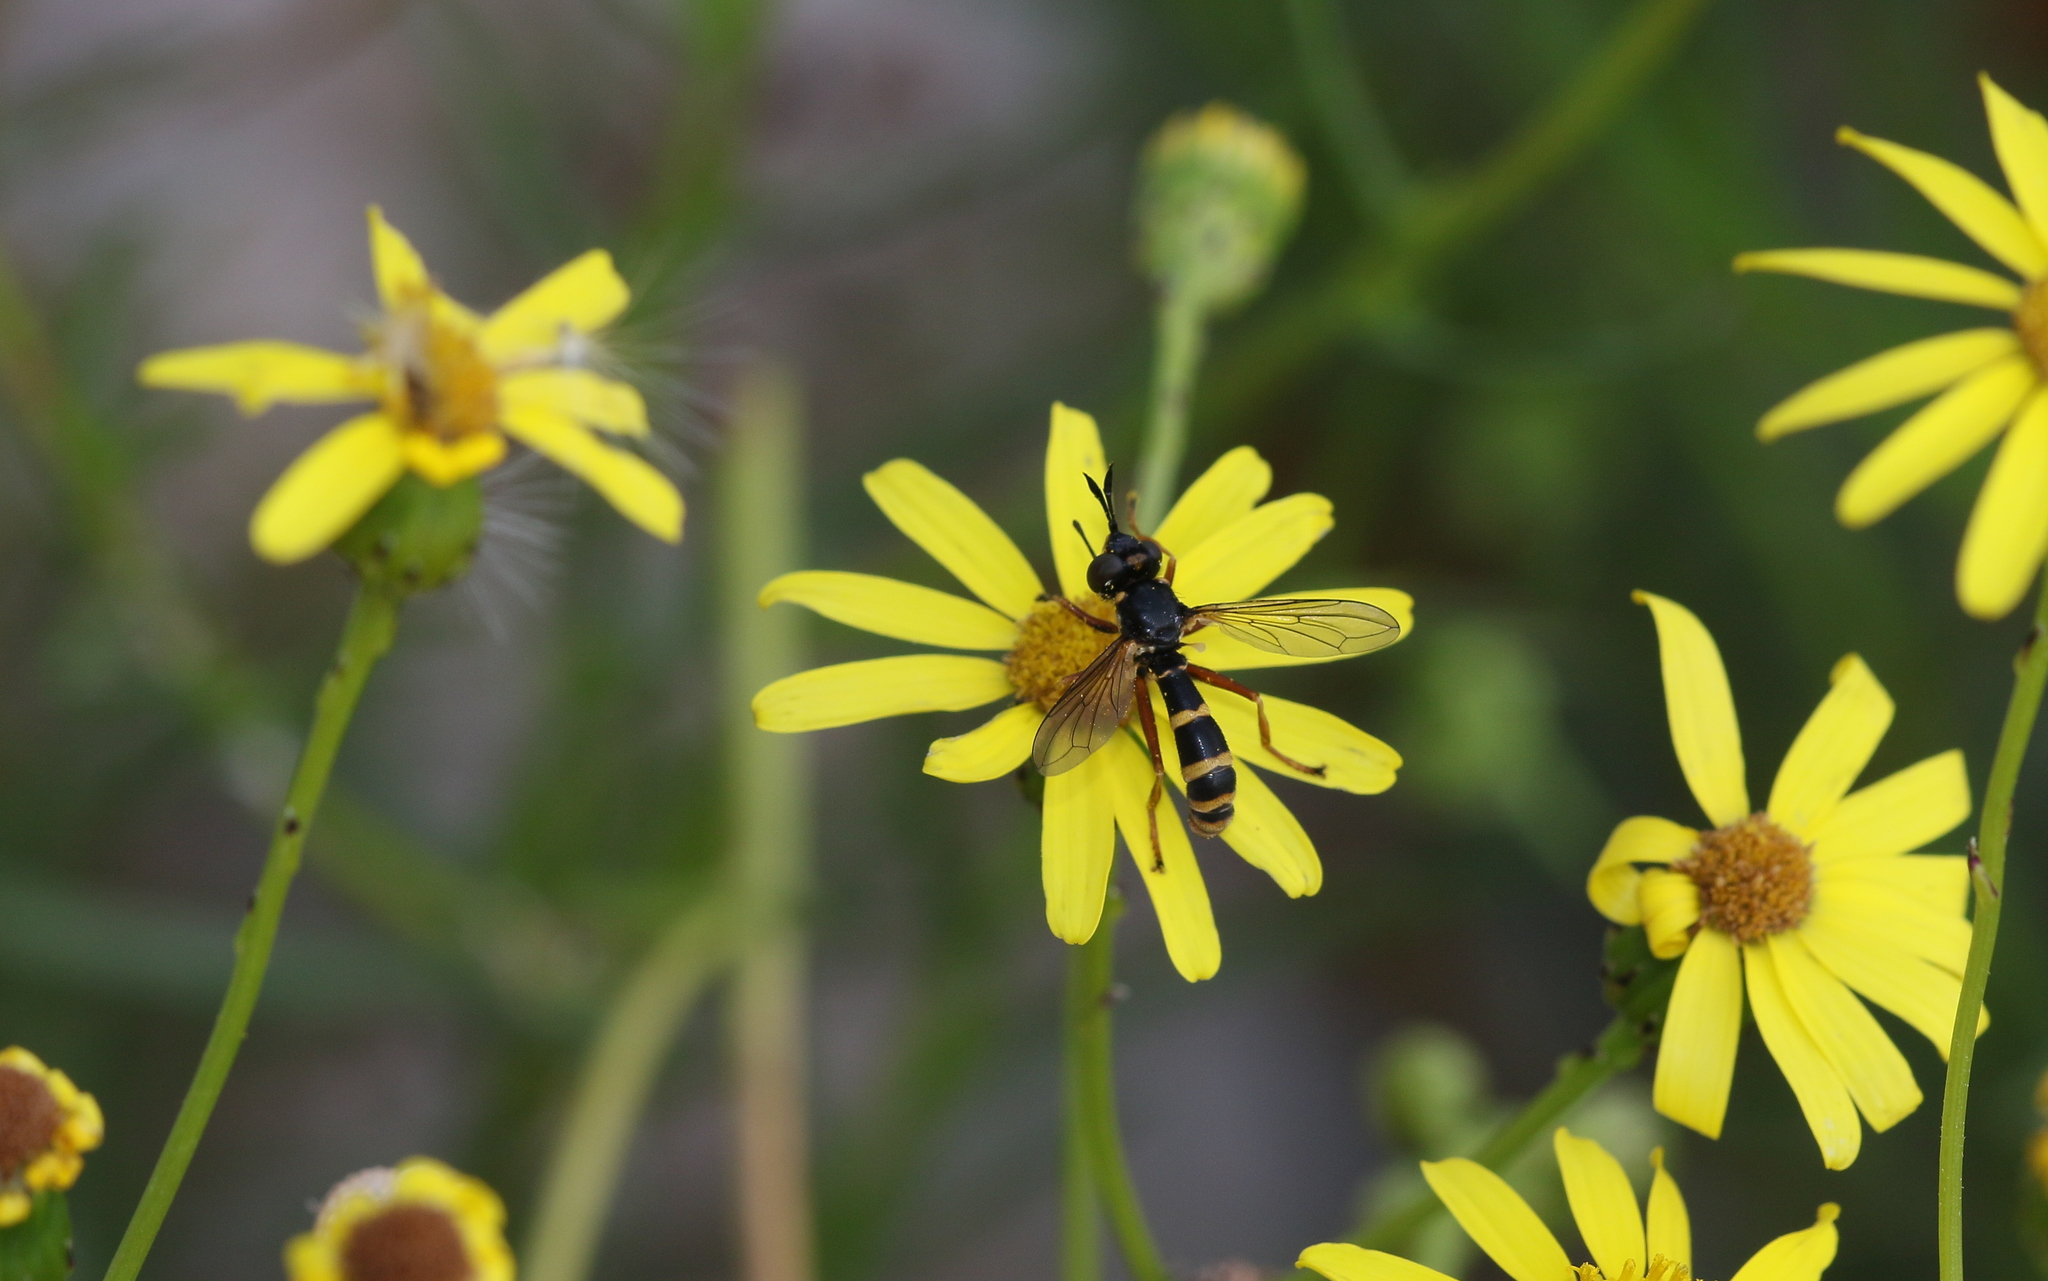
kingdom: Animalia
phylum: Arthropoda
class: Insecta
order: Diptera
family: Conopidae
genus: Conops
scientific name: Conops quadrifasciatus
